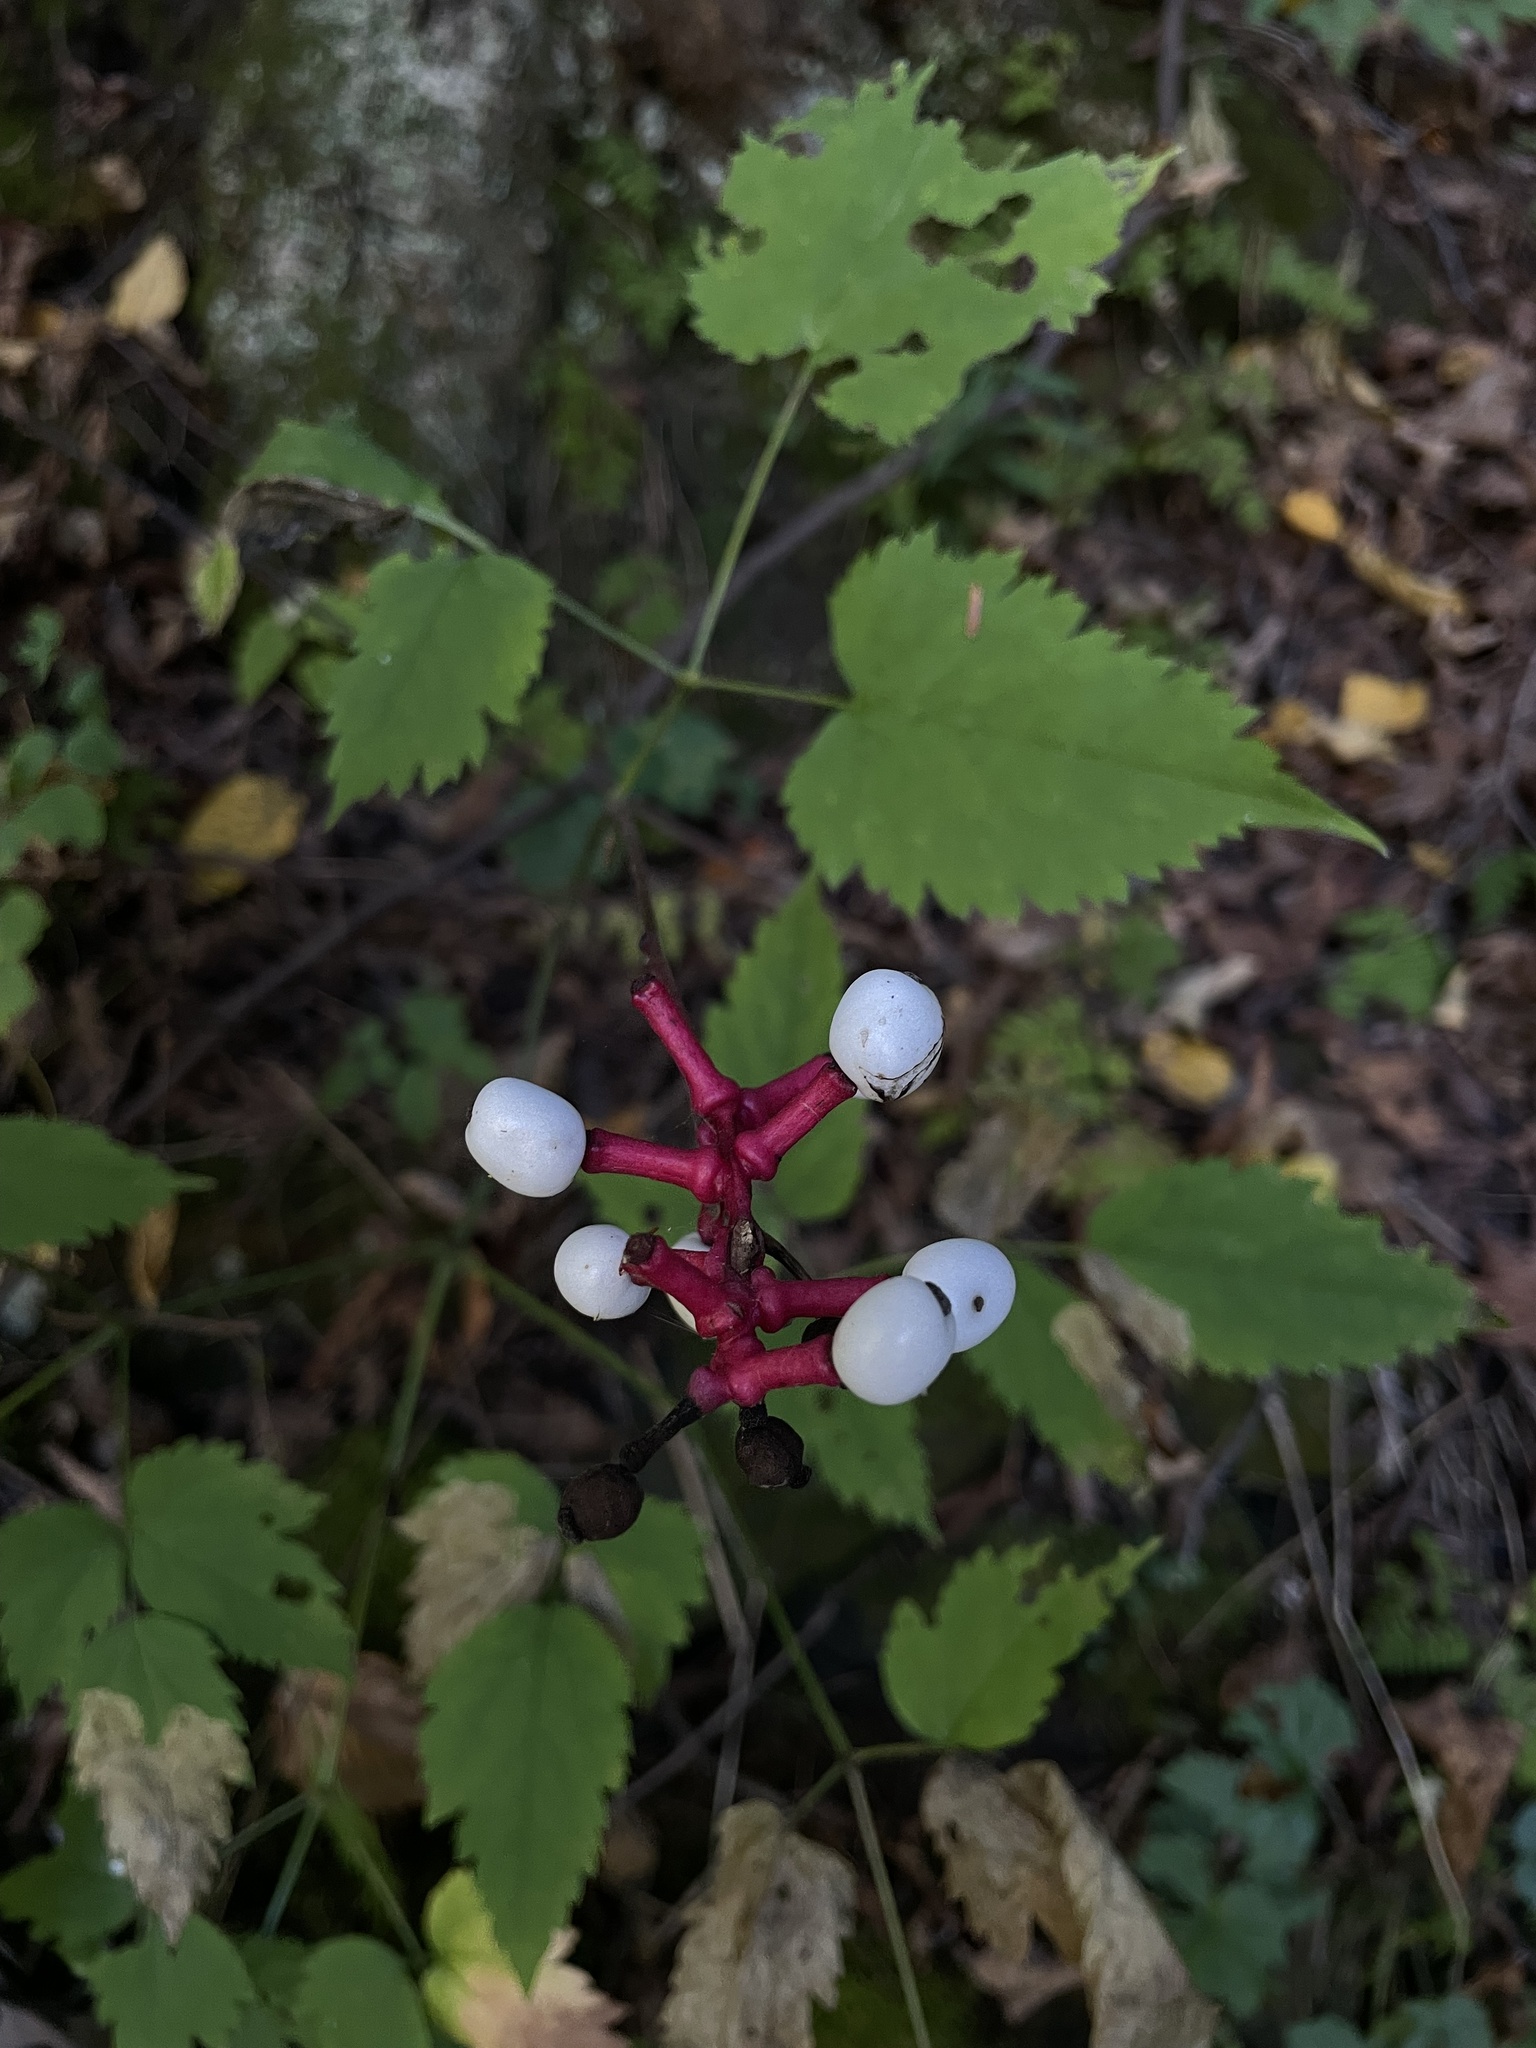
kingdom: Plantae
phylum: Tracheophyta
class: Magnoliopsida
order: Ranunculales
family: Ranunculaceae
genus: Actaea
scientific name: Actaea pachypoda
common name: Doll's-eyes
